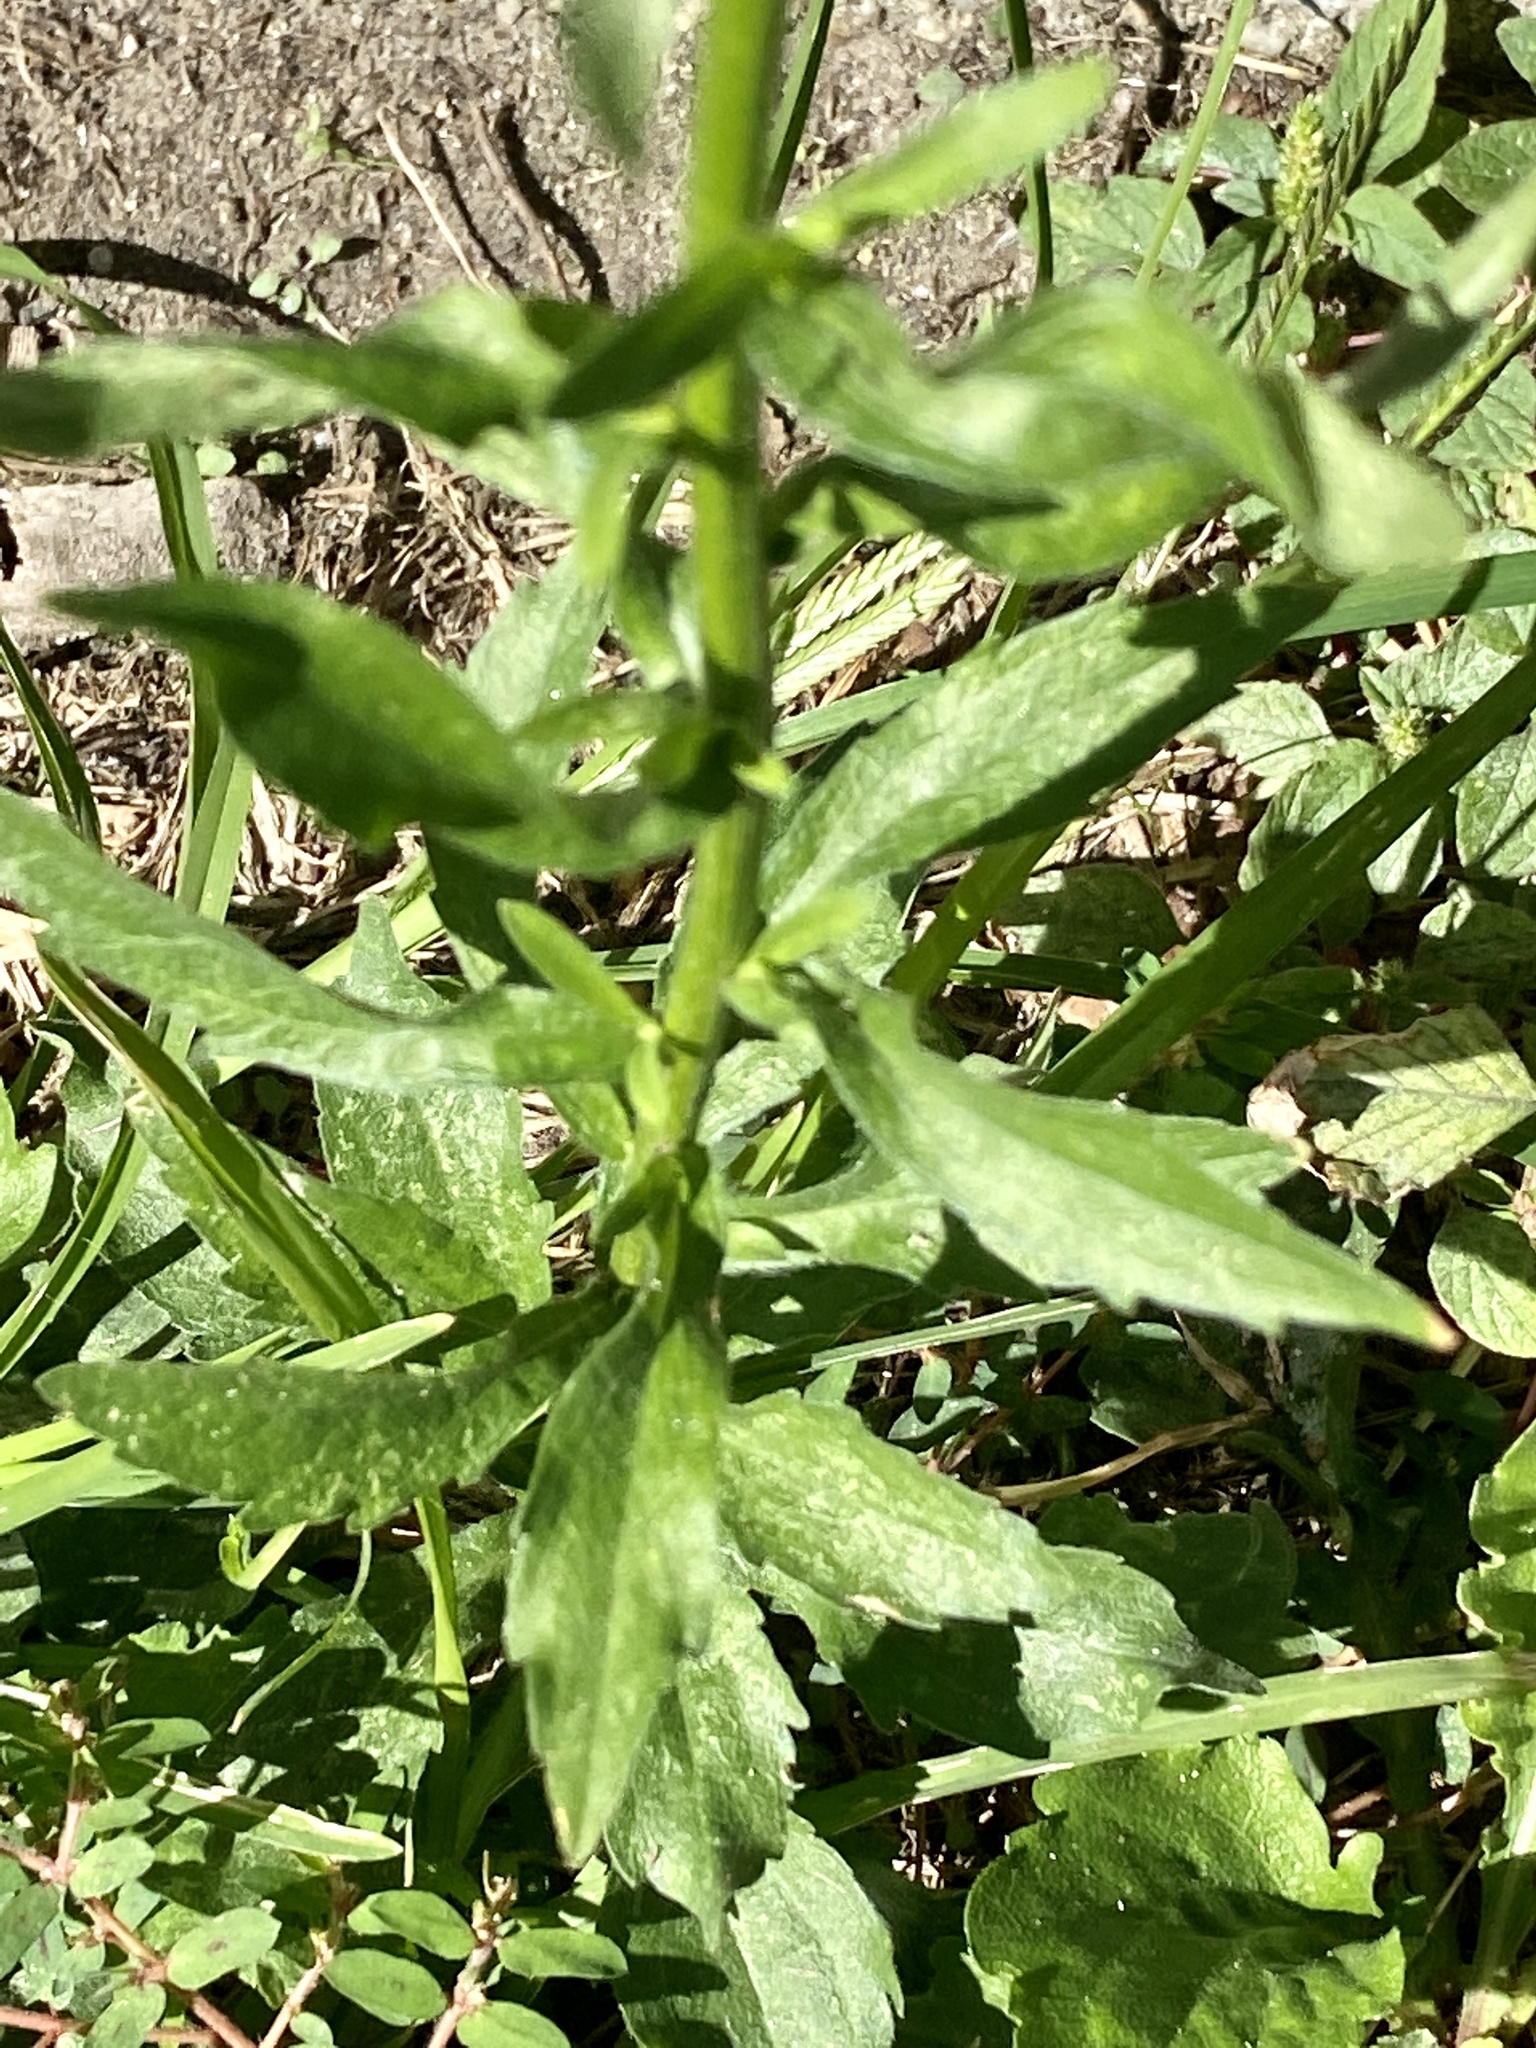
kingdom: Plantae
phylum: Tracheophyta
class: Magnoliopsida
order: Asterales
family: Asteraceae
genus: Erigeron
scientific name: Erigeron annuus
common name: Tall fleabane
